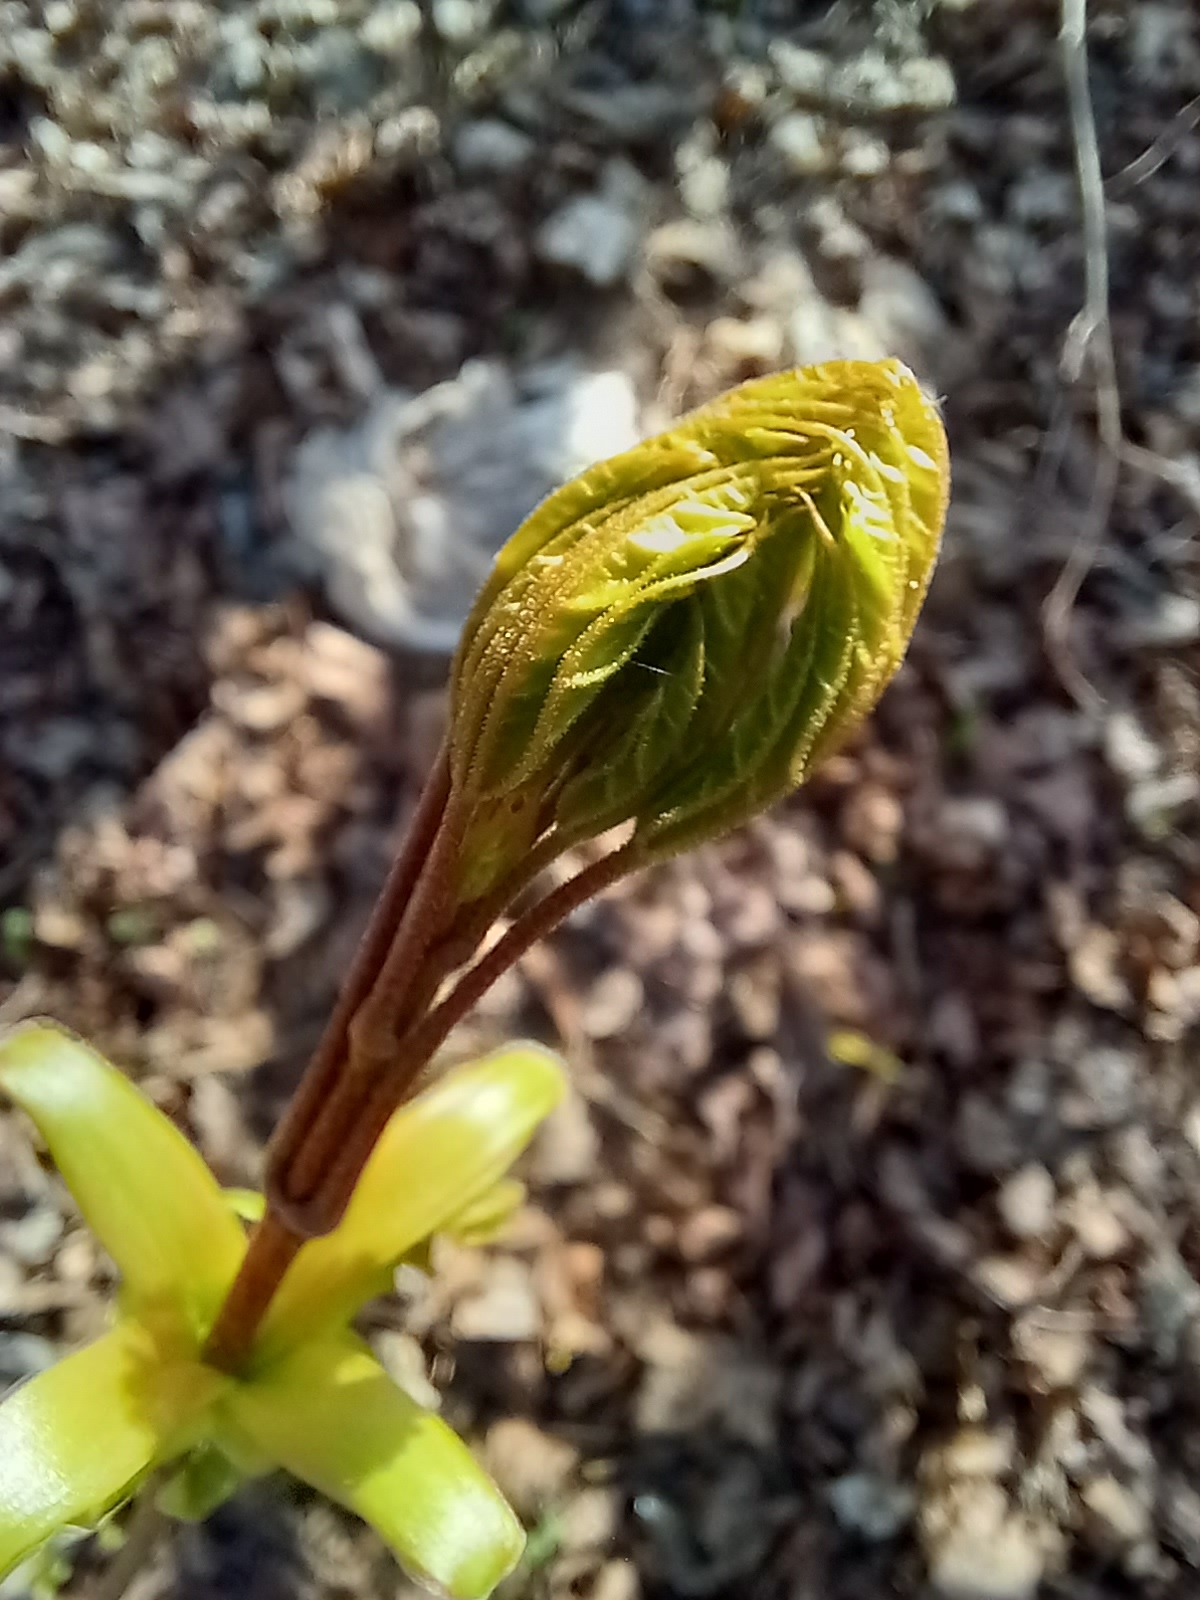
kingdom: Plantae
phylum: Tracheophyta
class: Magnoliopsida
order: Sapindales
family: Sapindaceae
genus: Acer
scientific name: Acer platanoides
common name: Norway maple
